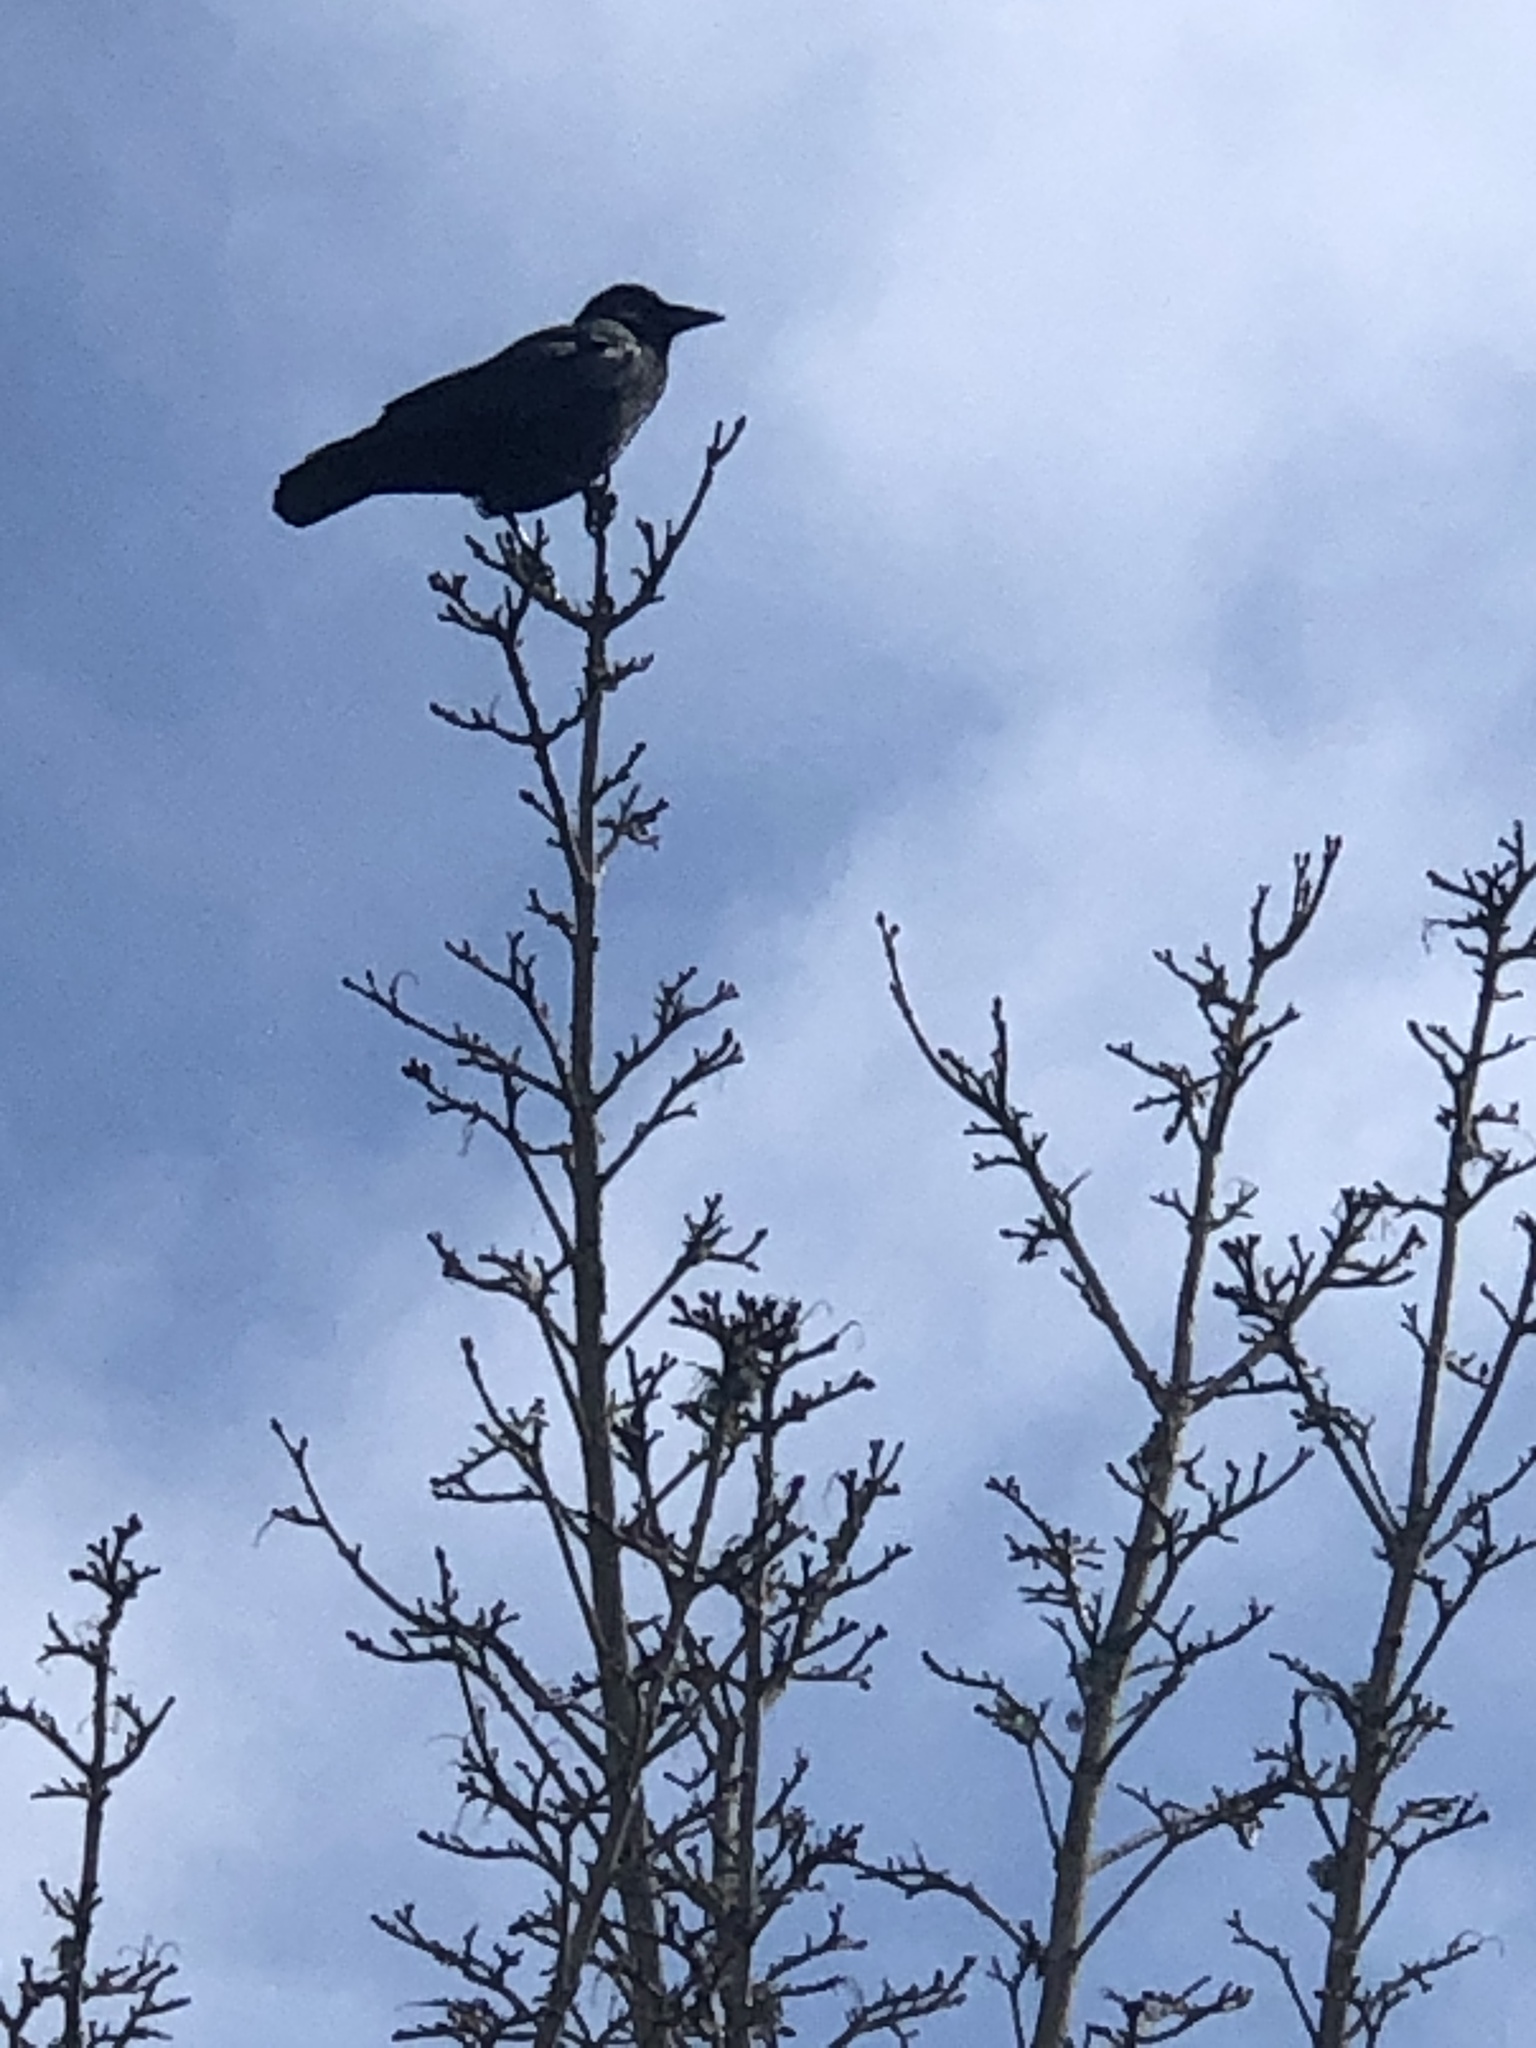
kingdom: Animalia
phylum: Chordata
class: Aves
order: Passeriformes
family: Corvidae
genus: Corvus
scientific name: Corvus brachyrhynchos
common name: American crow
